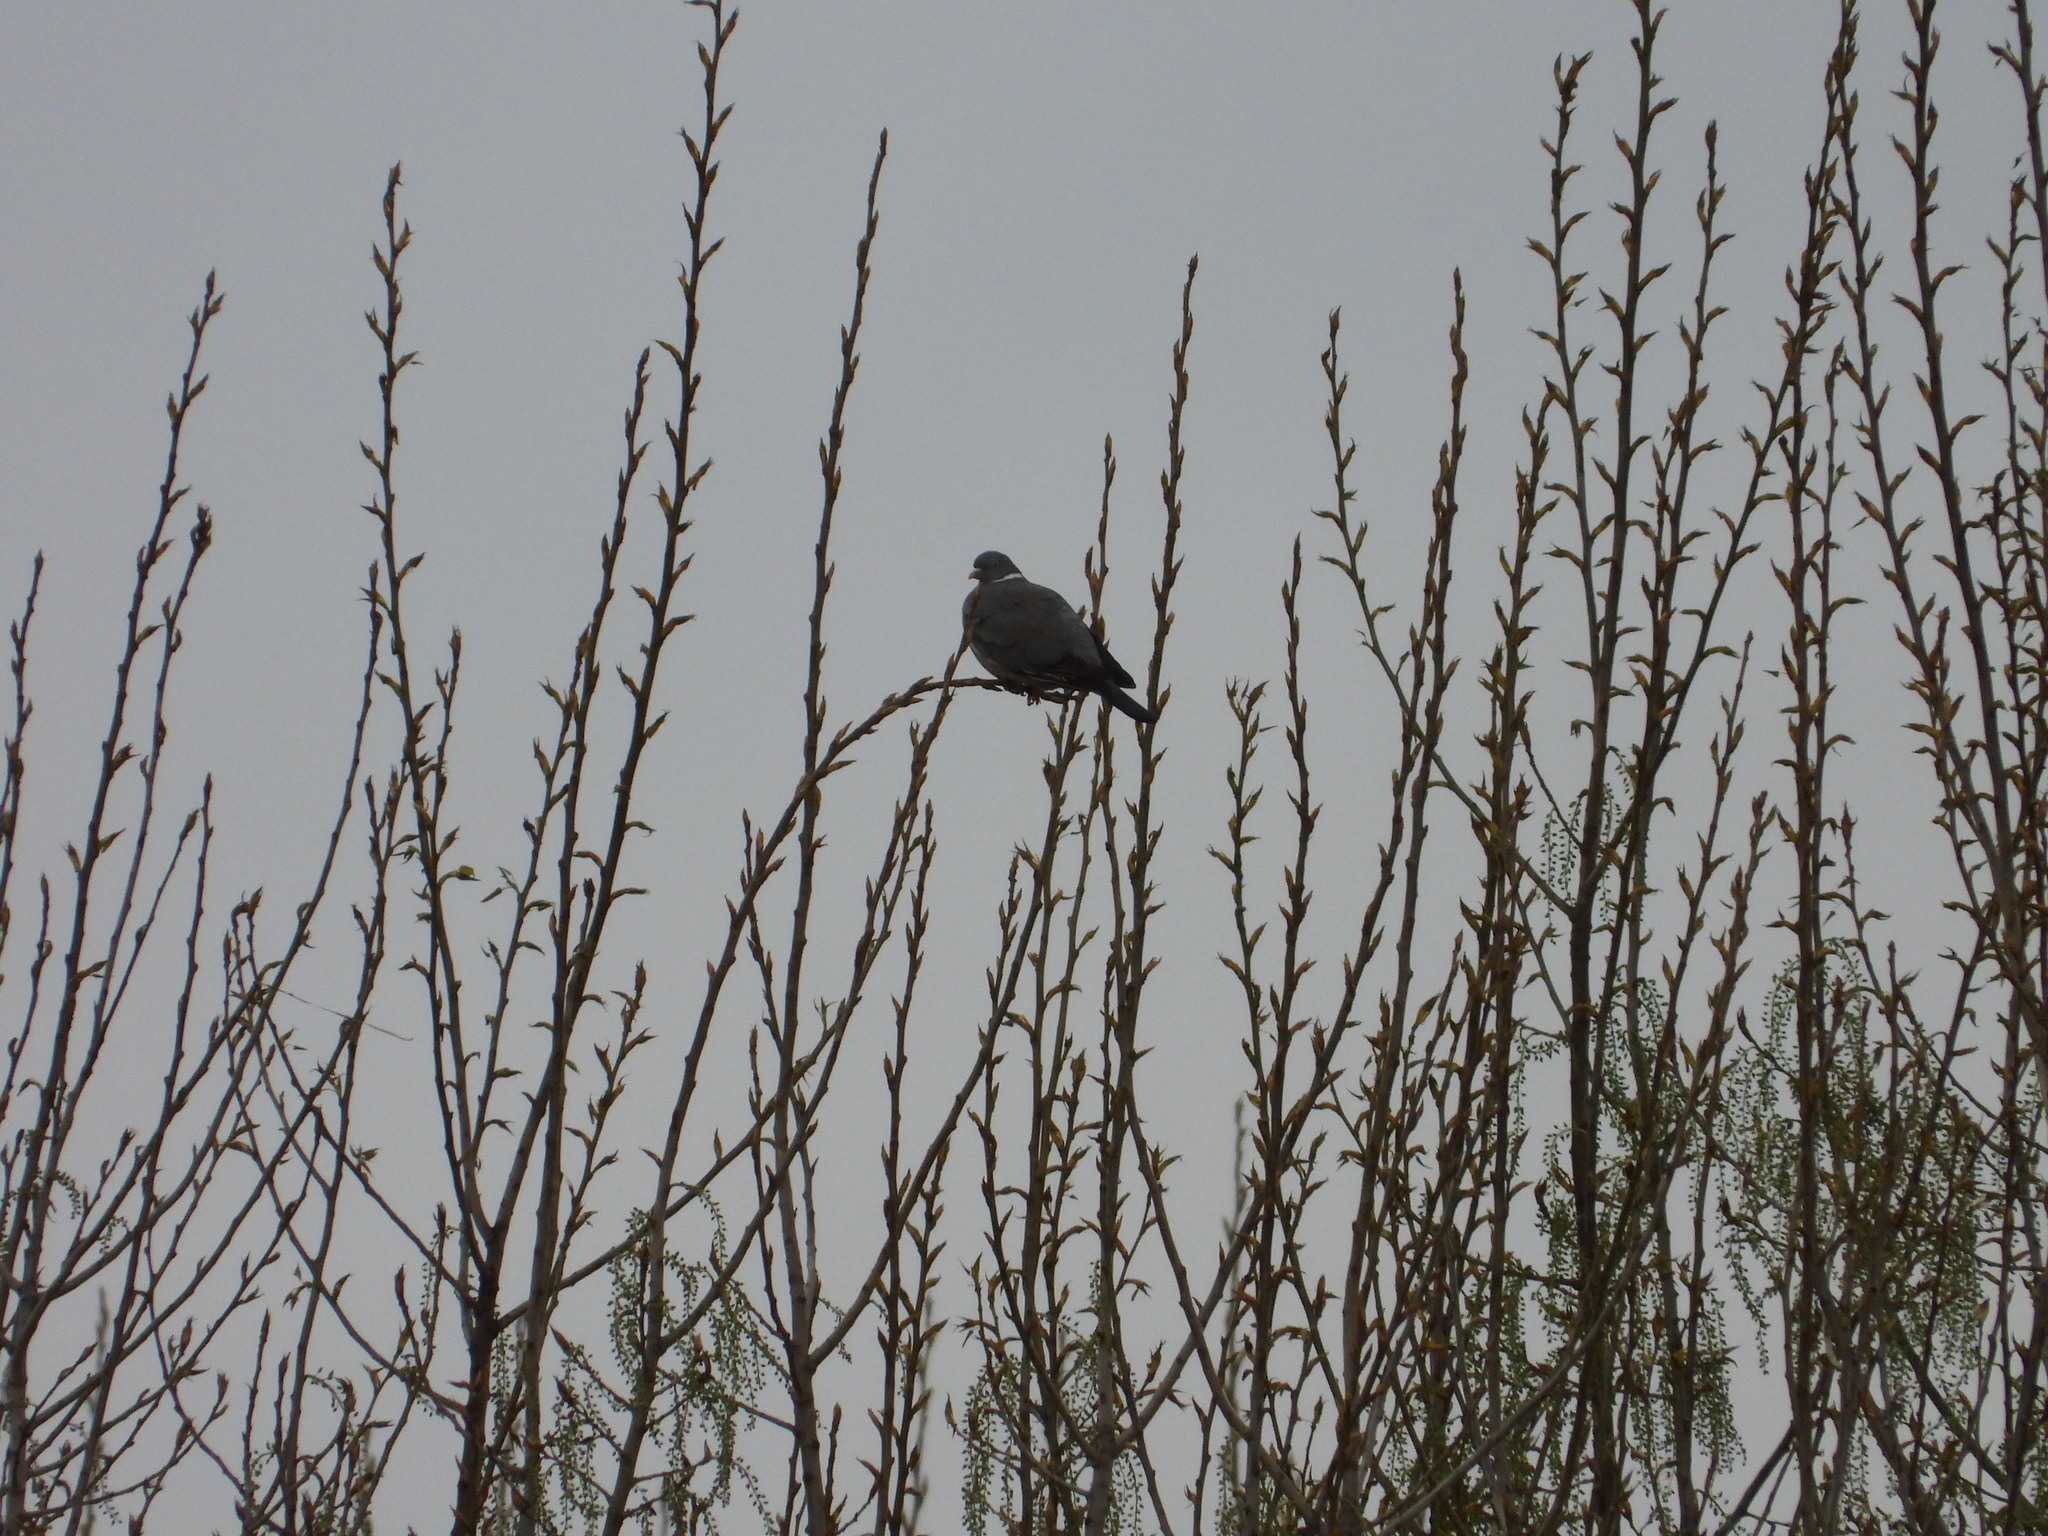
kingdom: Animalia
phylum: Chordata
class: Aves
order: Columbiformes
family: Columbidae
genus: Columba
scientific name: Columba palumbus
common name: Common wood pigeon
